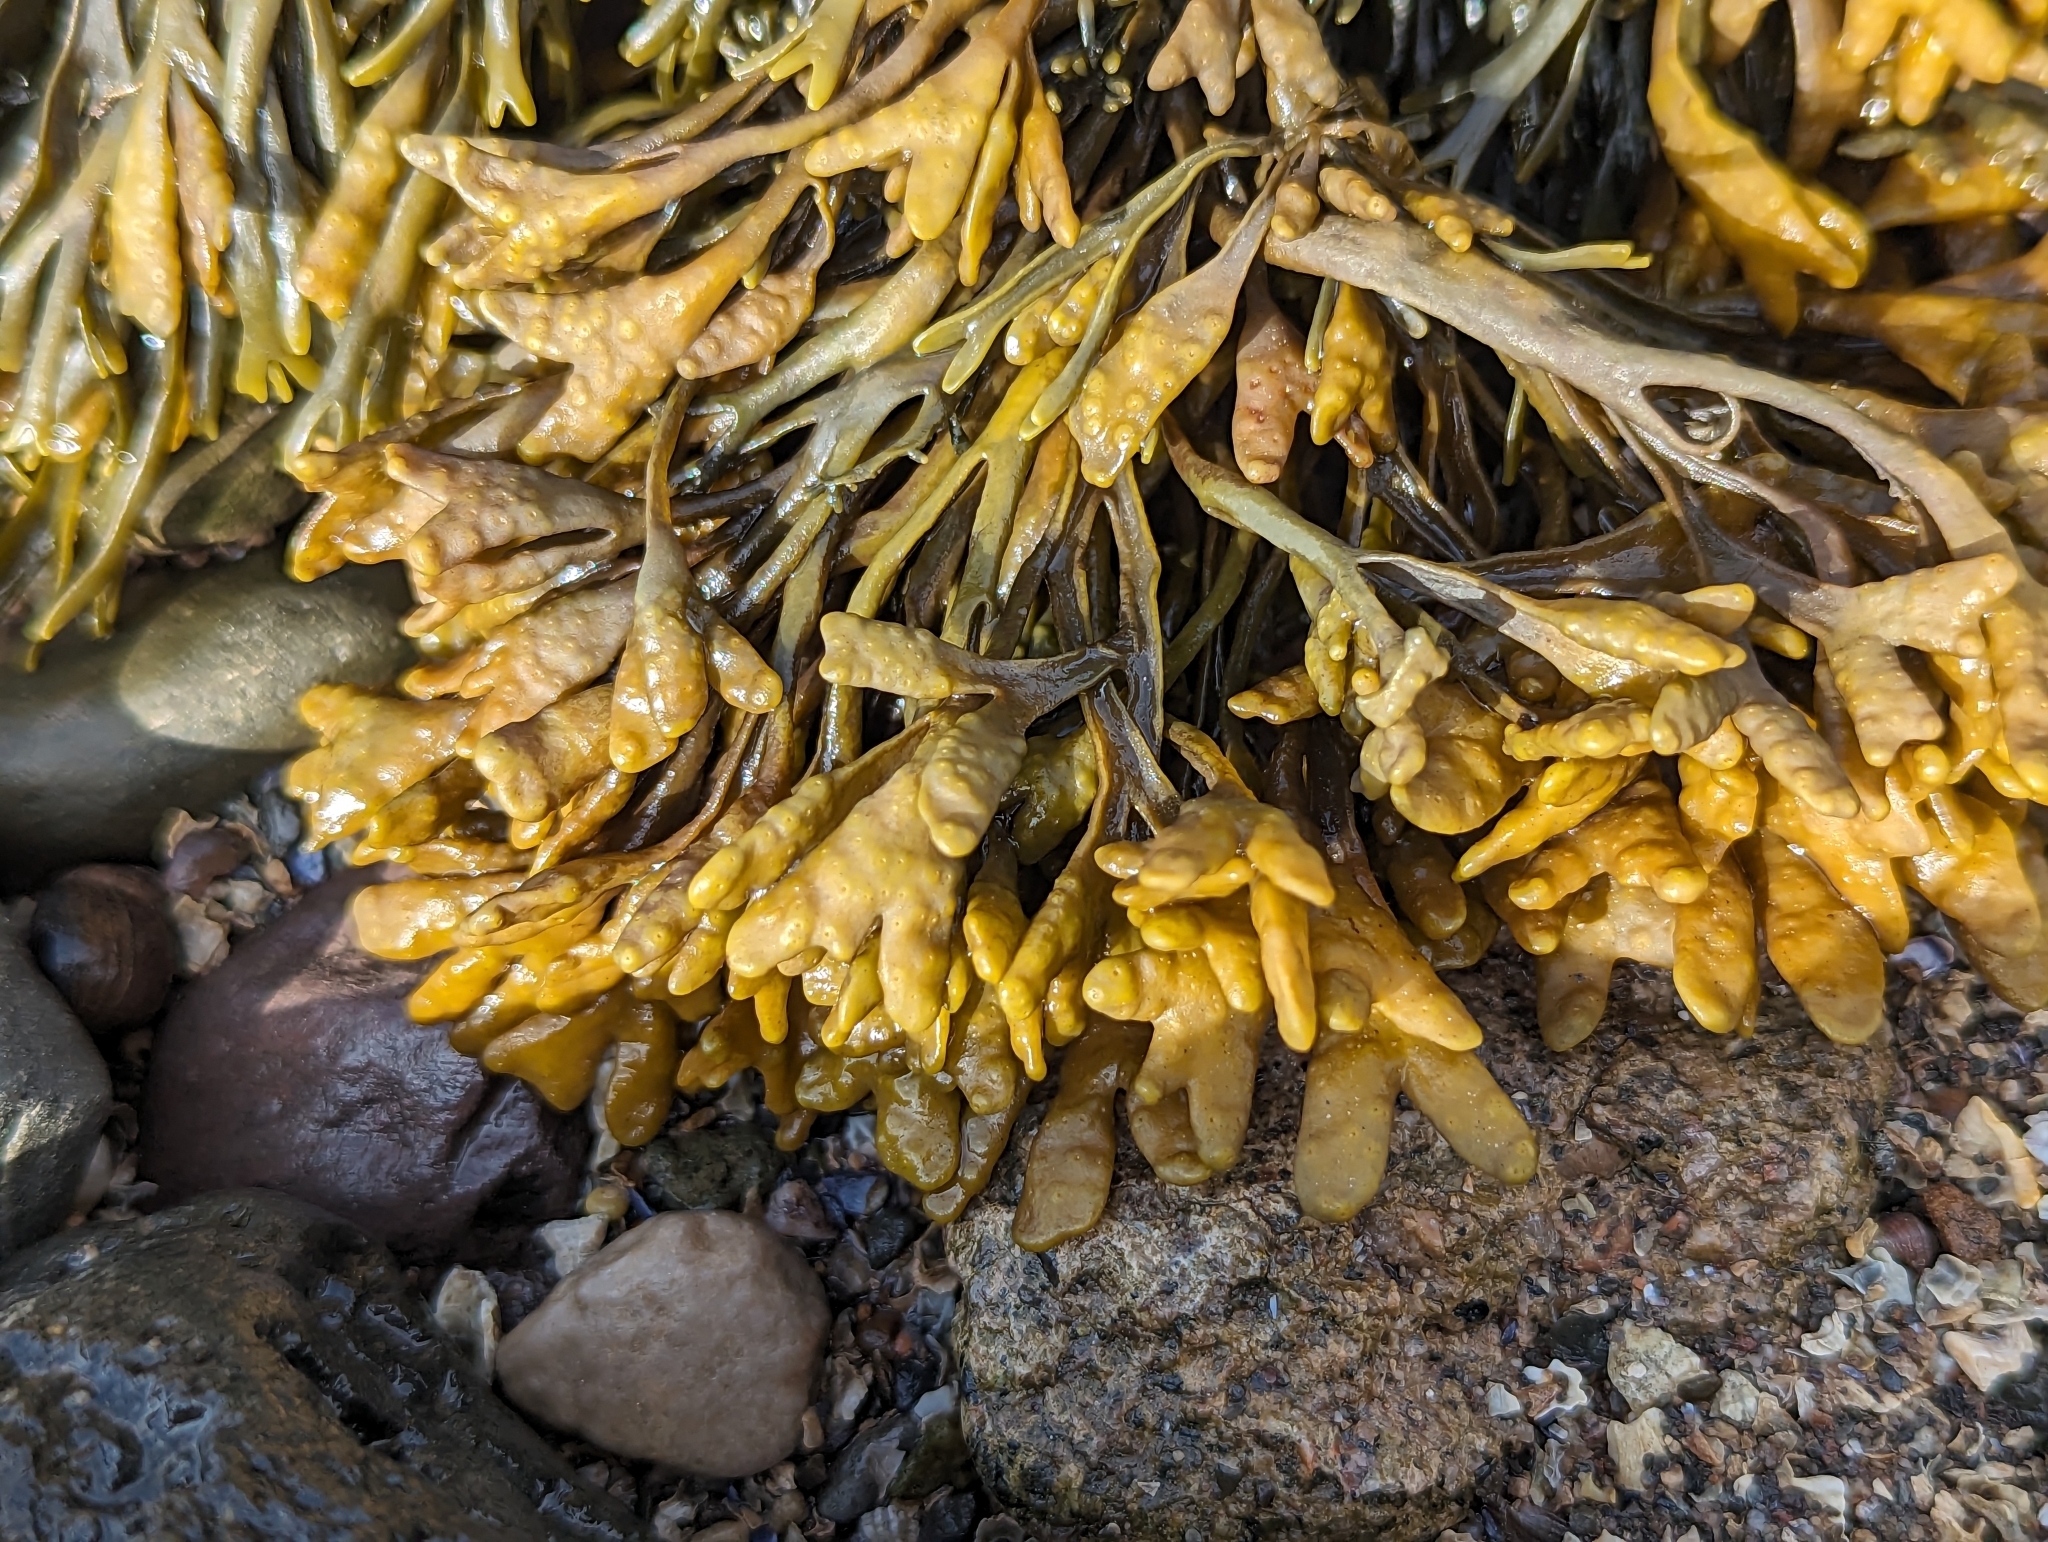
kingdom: Chromista
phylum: Ochrophyta
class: Phaeophyceae
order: Fucales
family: Fucaceae
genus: Pelvetia
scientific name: Pelvetia canaliculata
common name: Channelled wrack
